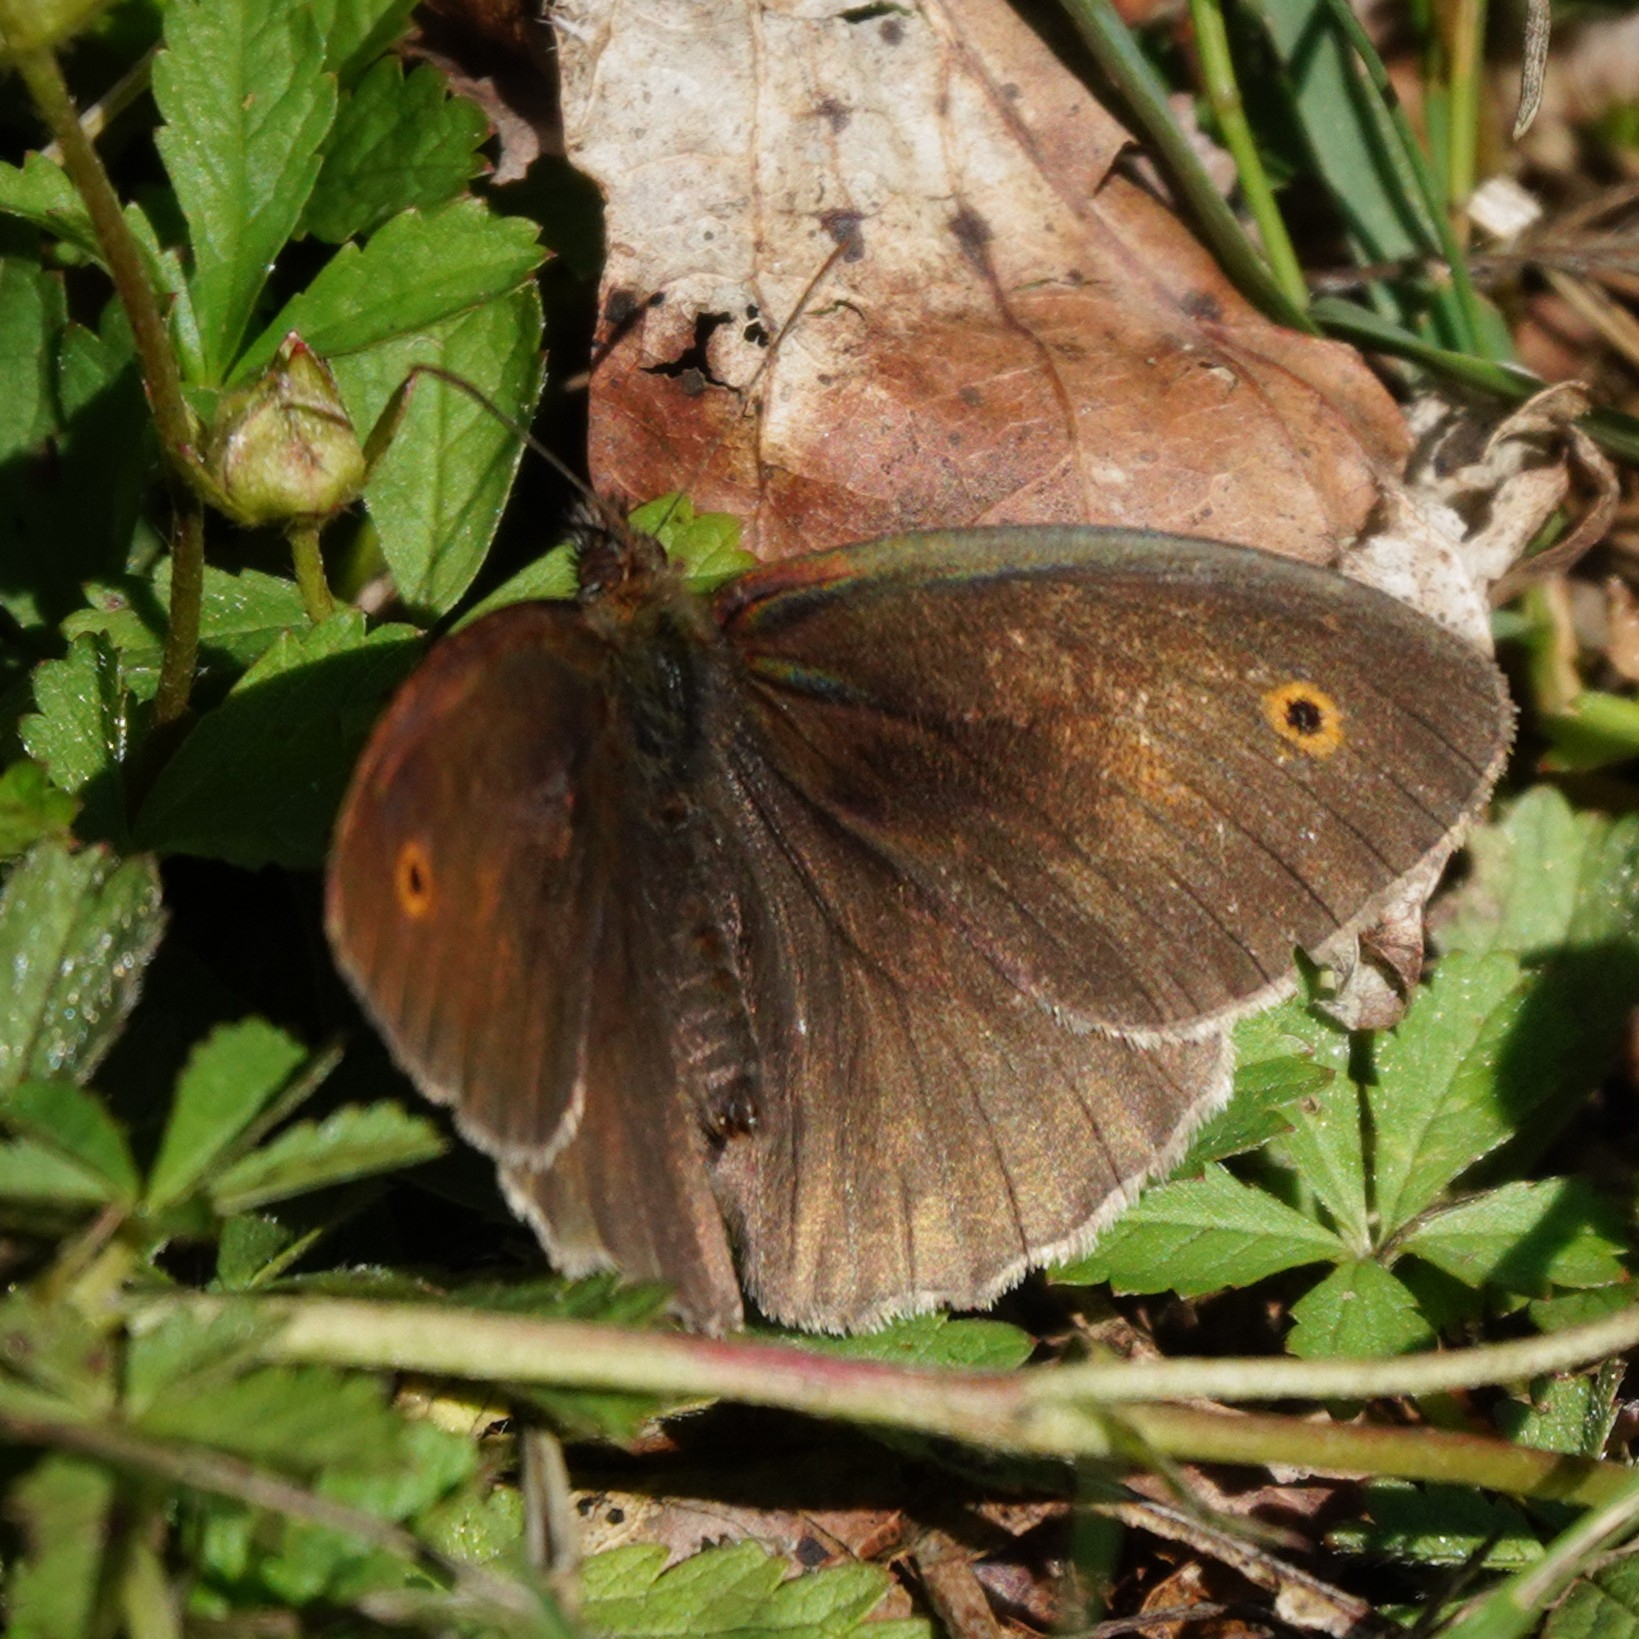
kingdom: Animalia
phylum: Arthropoda
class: Insecta
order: Lepidoptera
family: Nymphalidae
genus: Maniola
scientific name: Maniola jurtina
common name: Meadow brown
